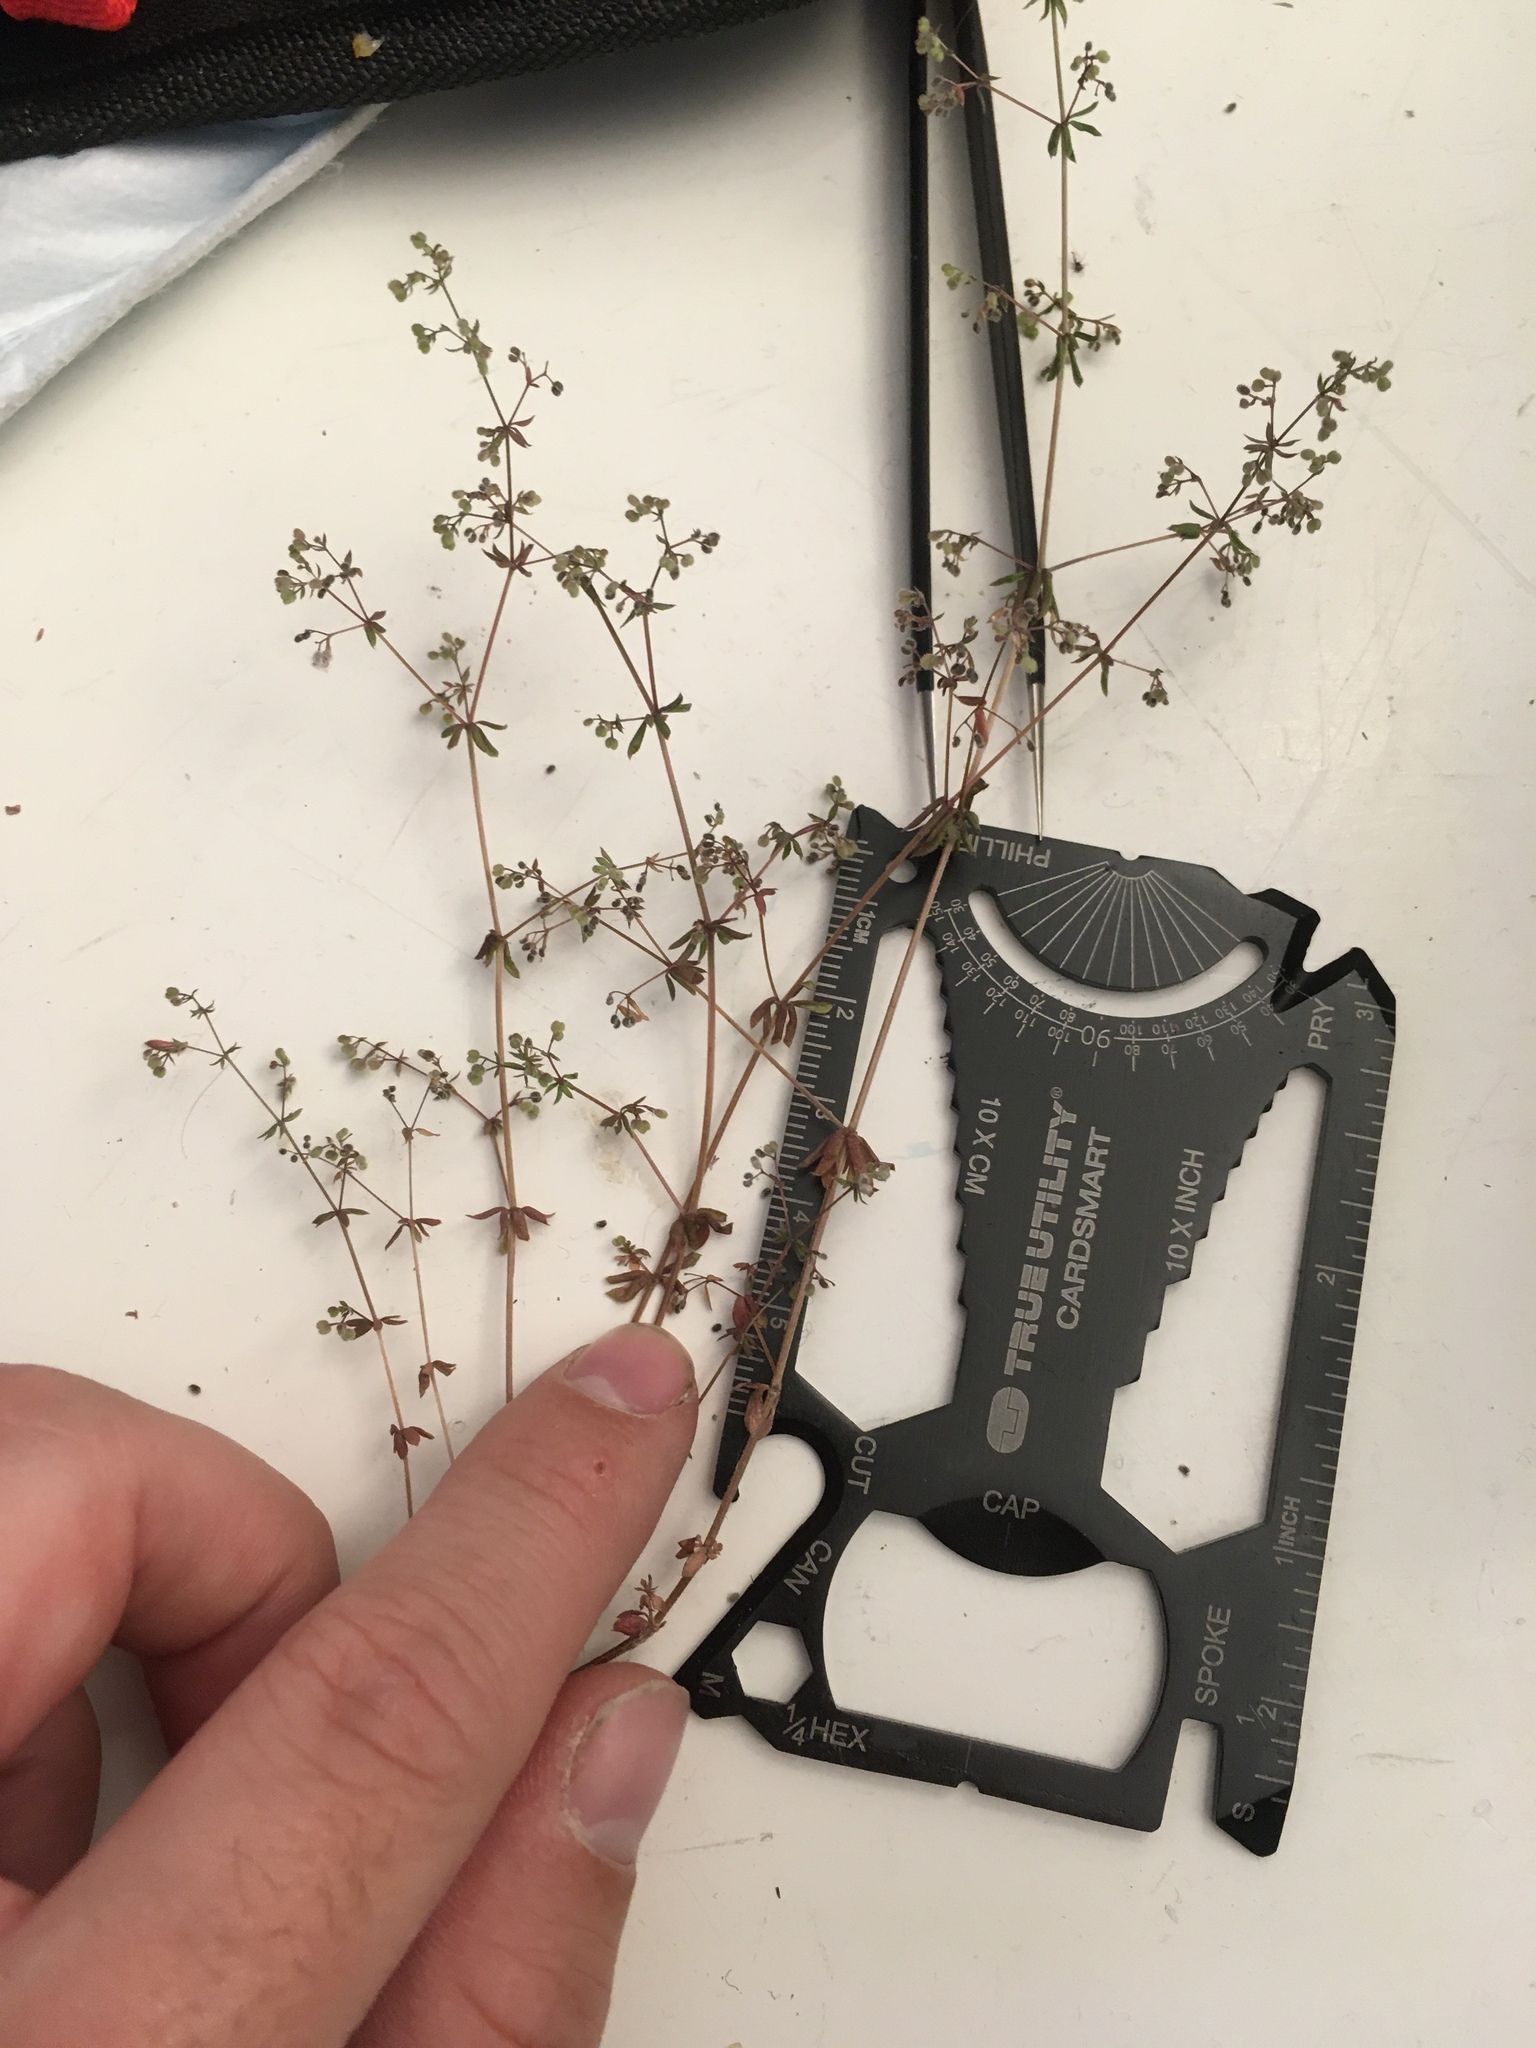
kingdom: Plantae
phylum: Tracheophyta
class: Magnoliopsida
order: Gentianales
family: Rubiaceae
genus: Galium
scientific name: Galium parisiense
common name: Wall bedstraw
